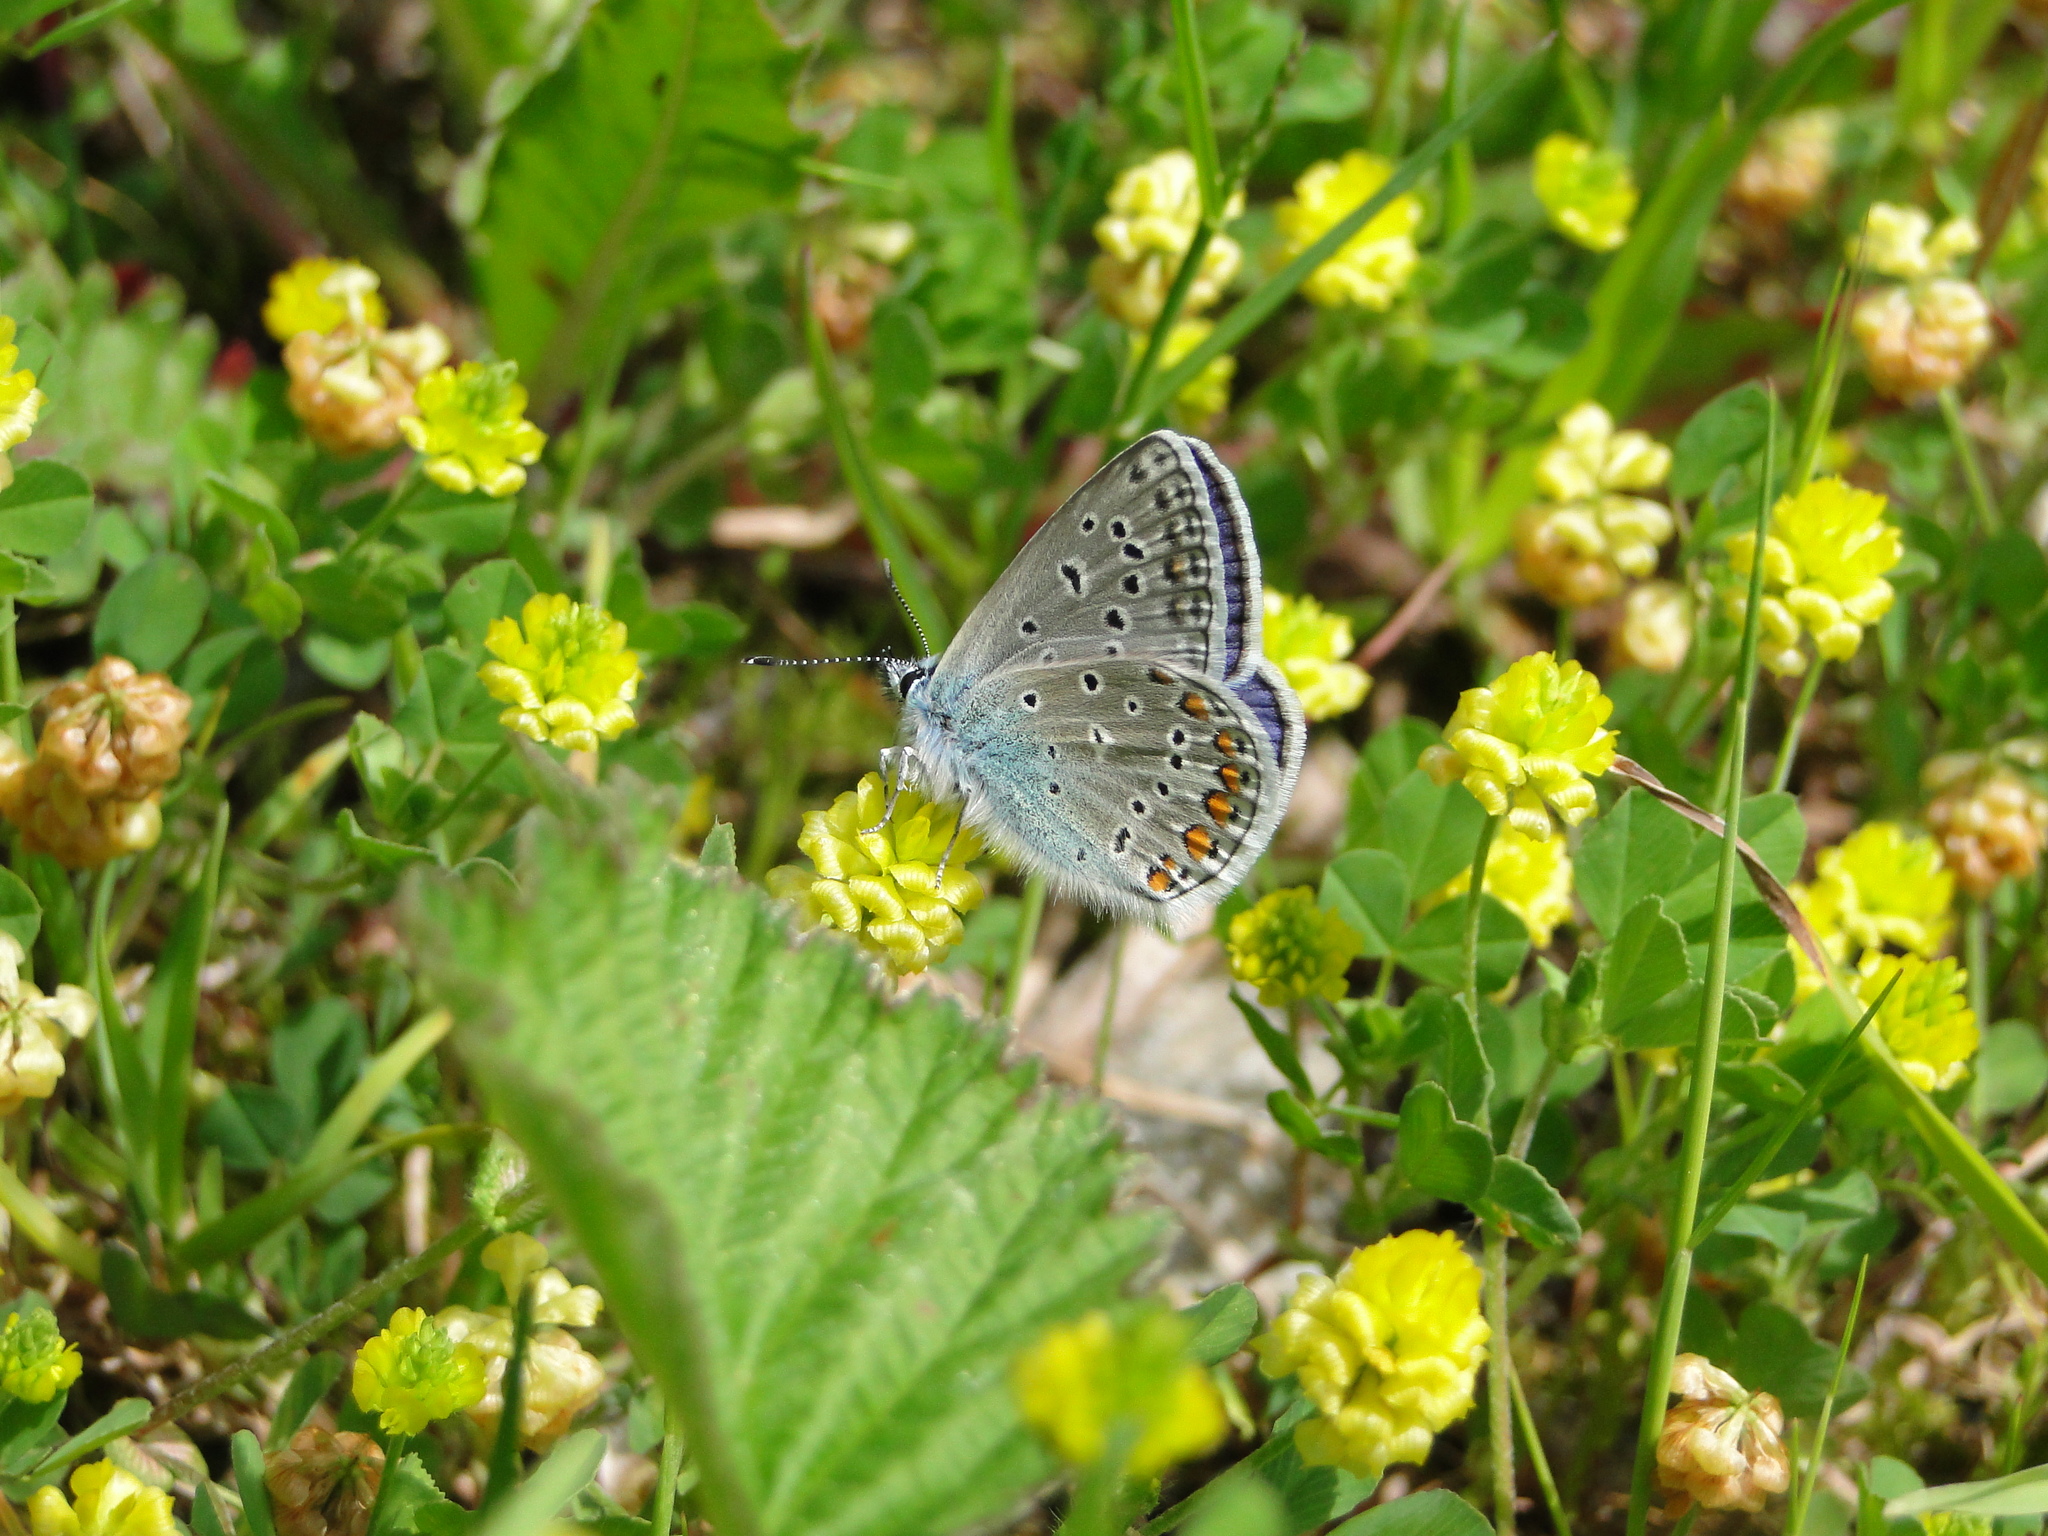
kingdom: Animalia
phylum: Arthropoda
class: Insecta
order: Lepidoptera
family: Lycaenidae
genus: Polyommatus
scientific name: Polyommatus icarus
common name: Common blue
